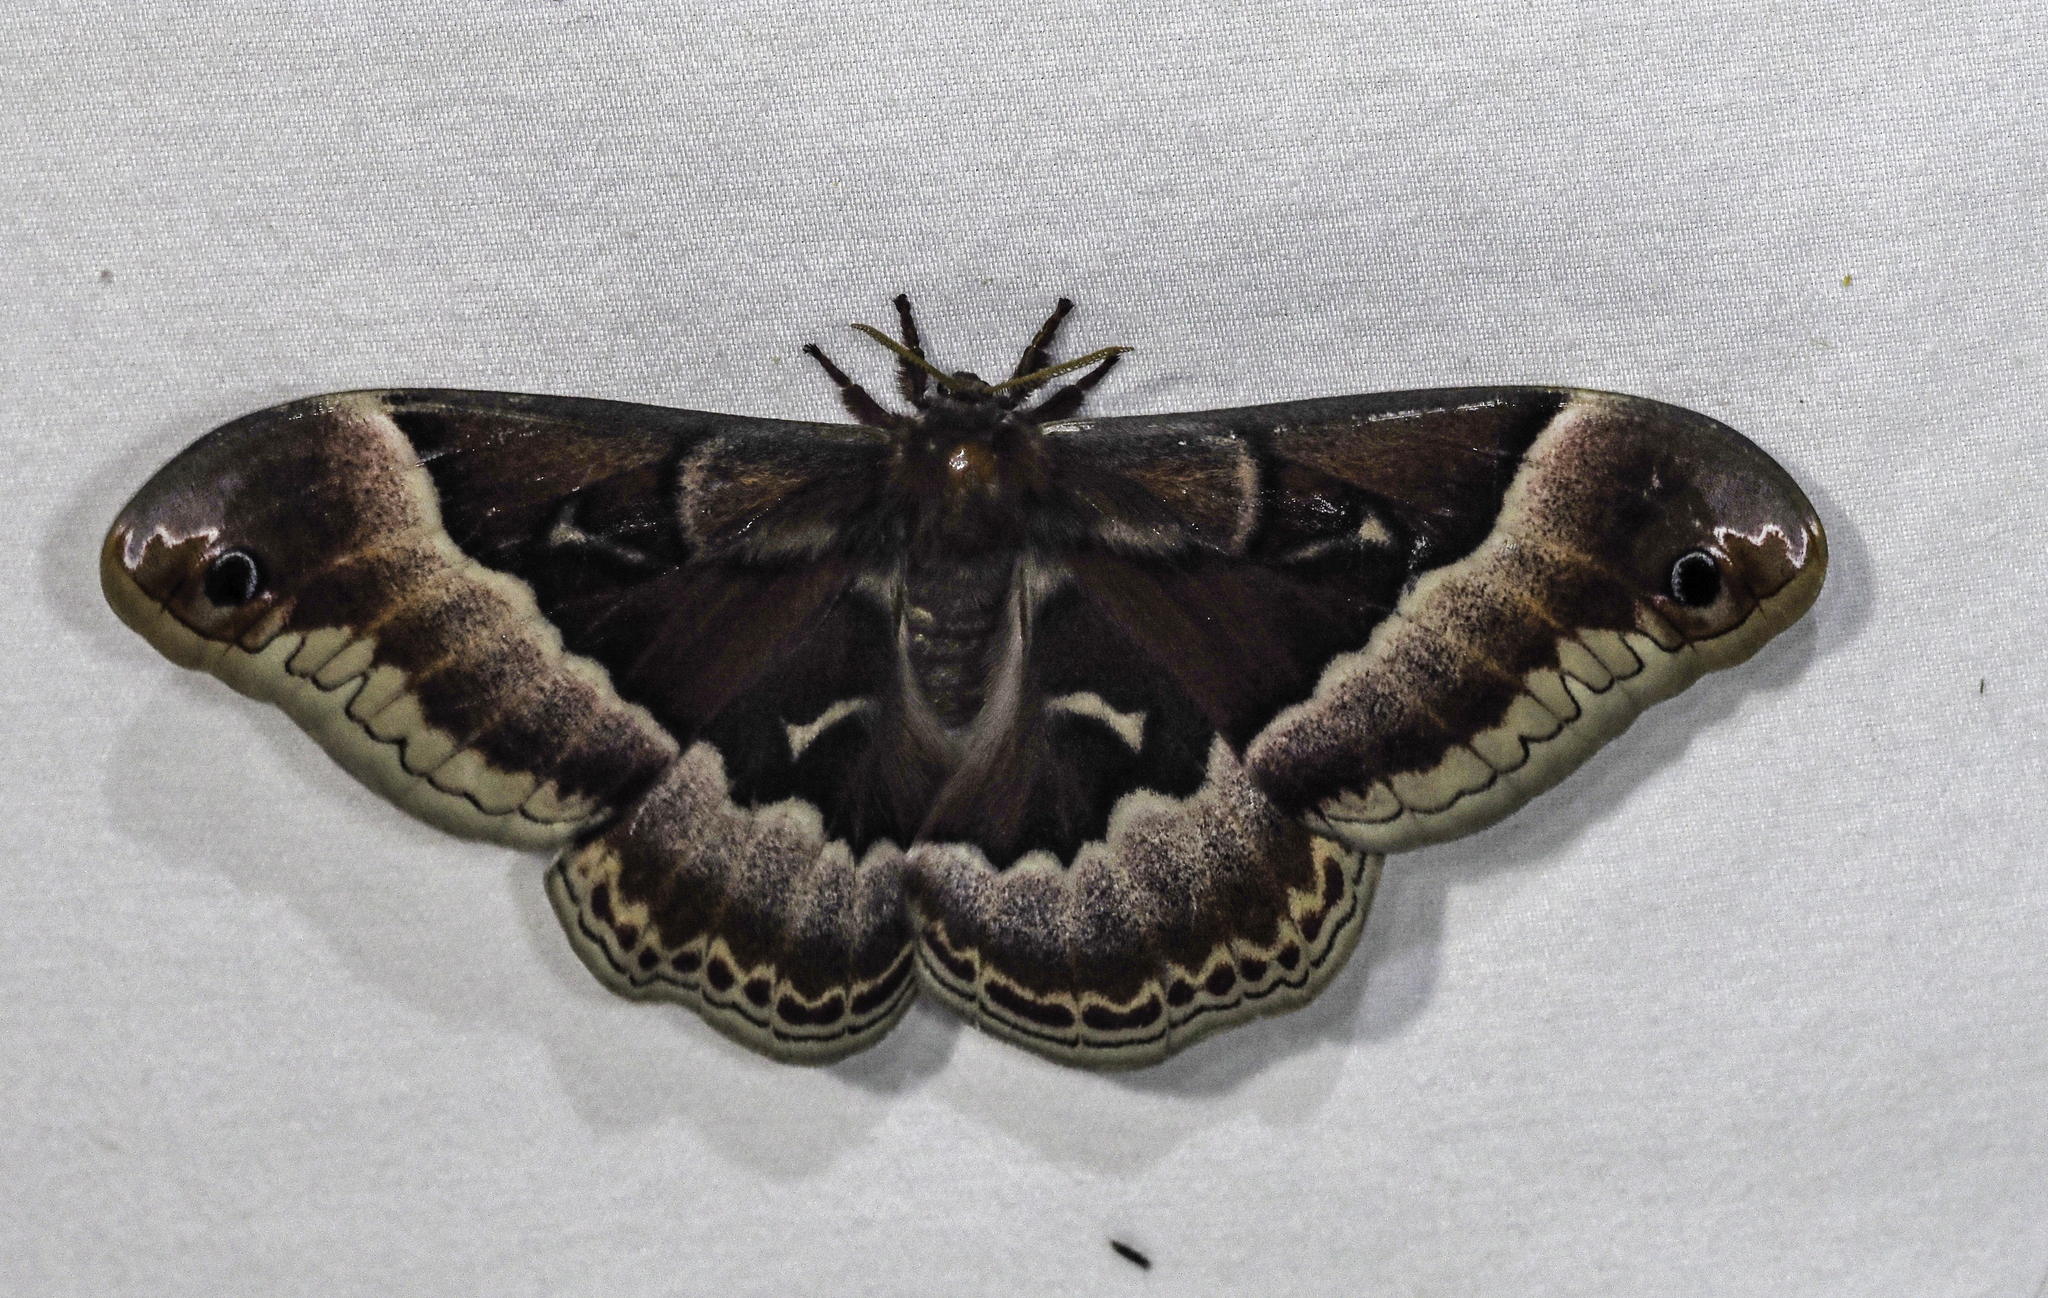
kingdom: Animalia
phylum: Arthropoda
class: Insecta
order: Lepidoptera
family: Saturniidae
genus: Callosamia
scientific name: Callosamia promethea
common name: Promethea silkmoth
